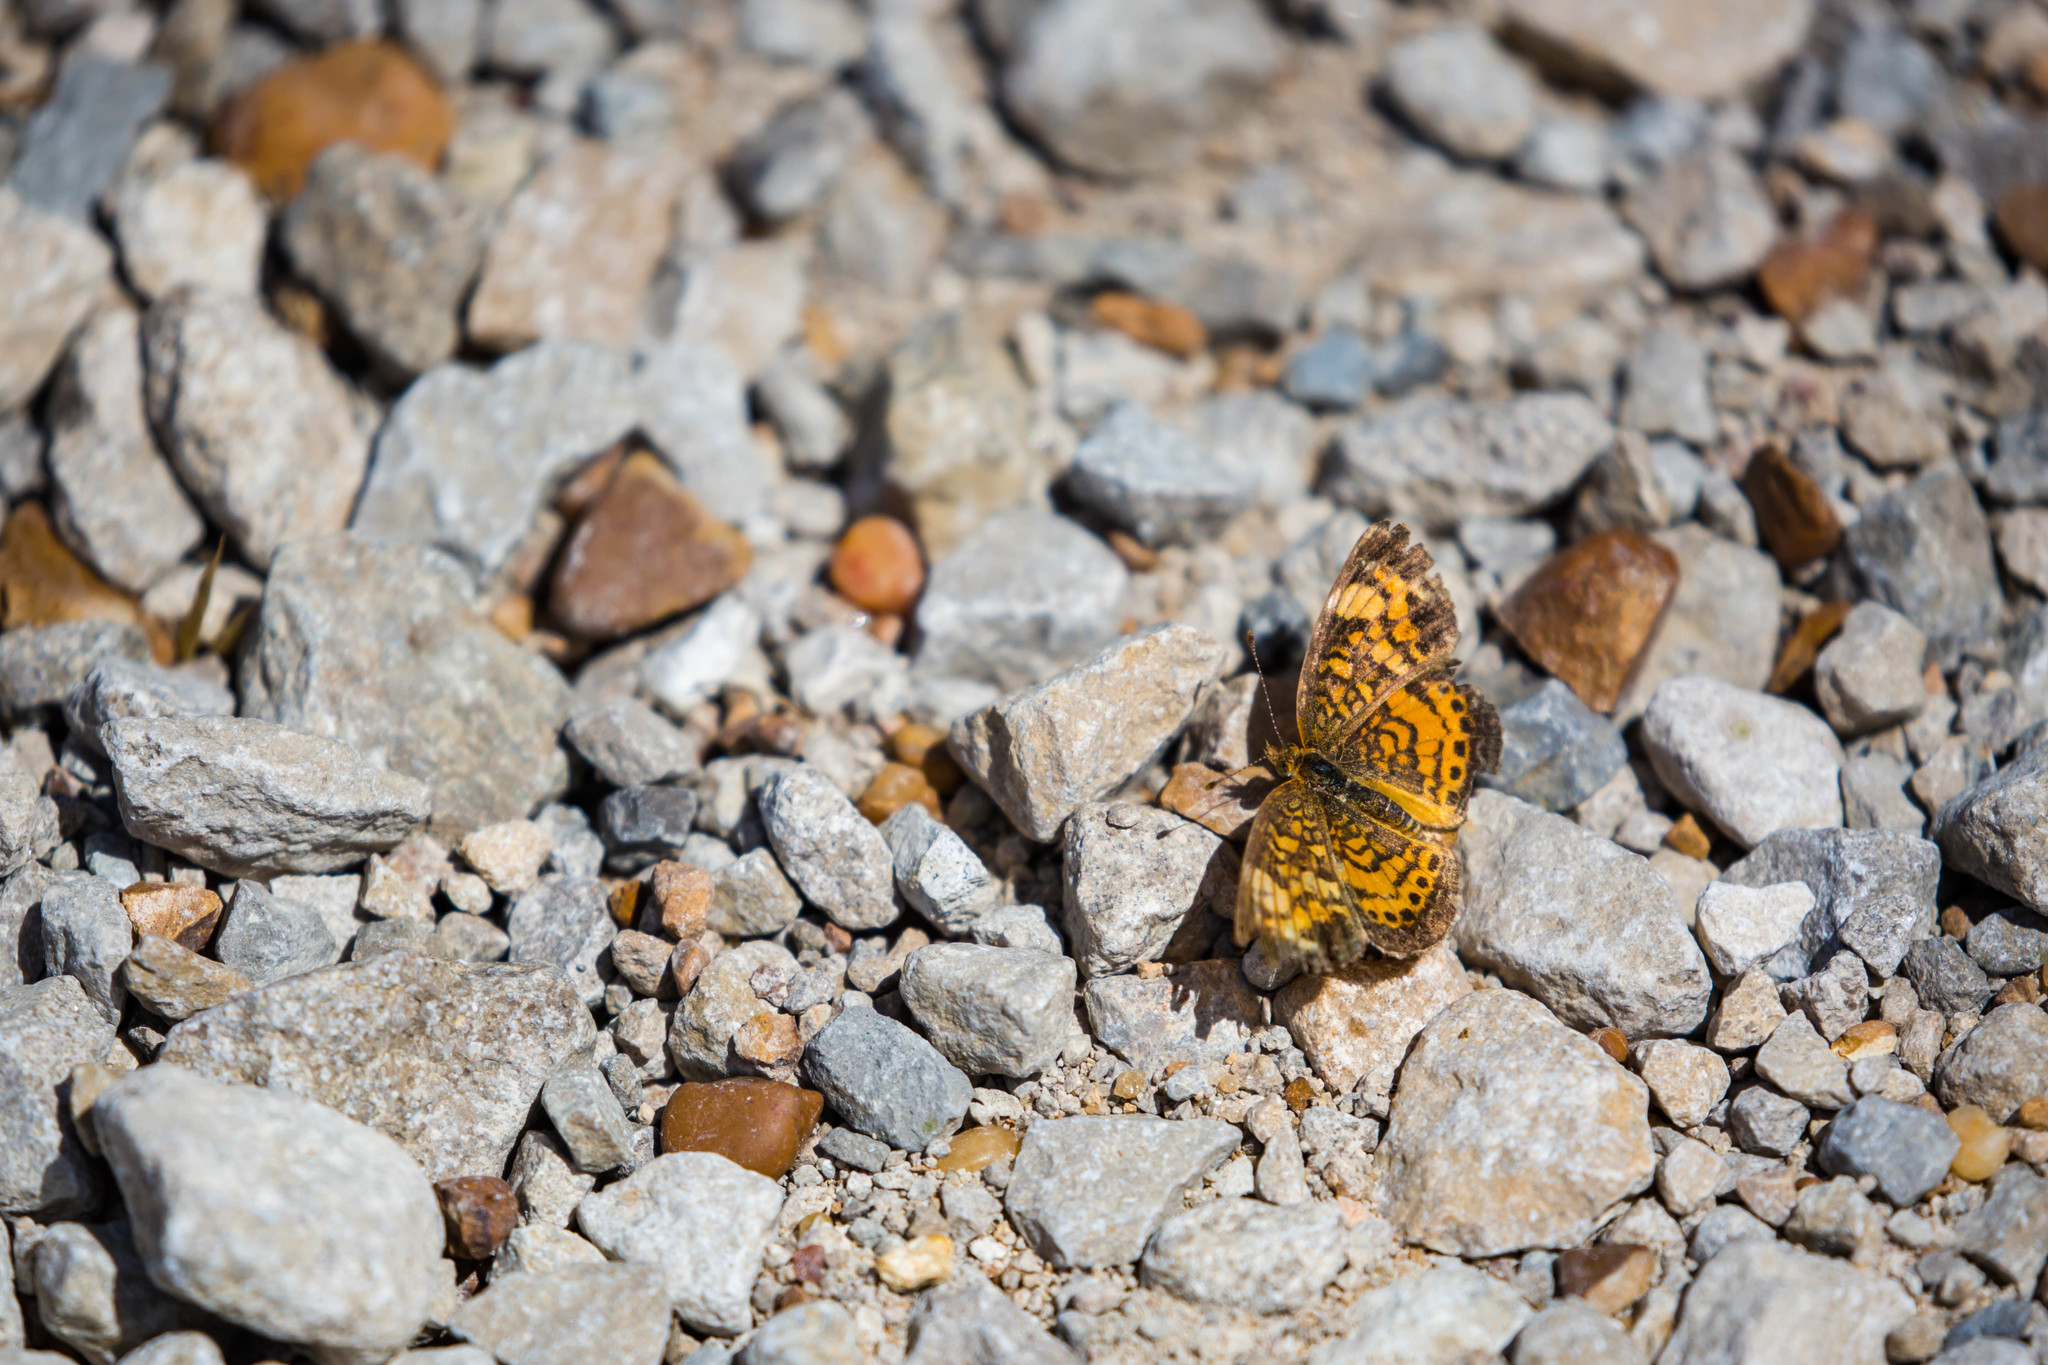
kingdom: Animalia
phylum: Arthropoda
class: Insecta
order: Lepidoptera
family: Nymphalidae
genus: Phyciodes
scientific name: Phyciodes tharos
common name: Pearl crescent
